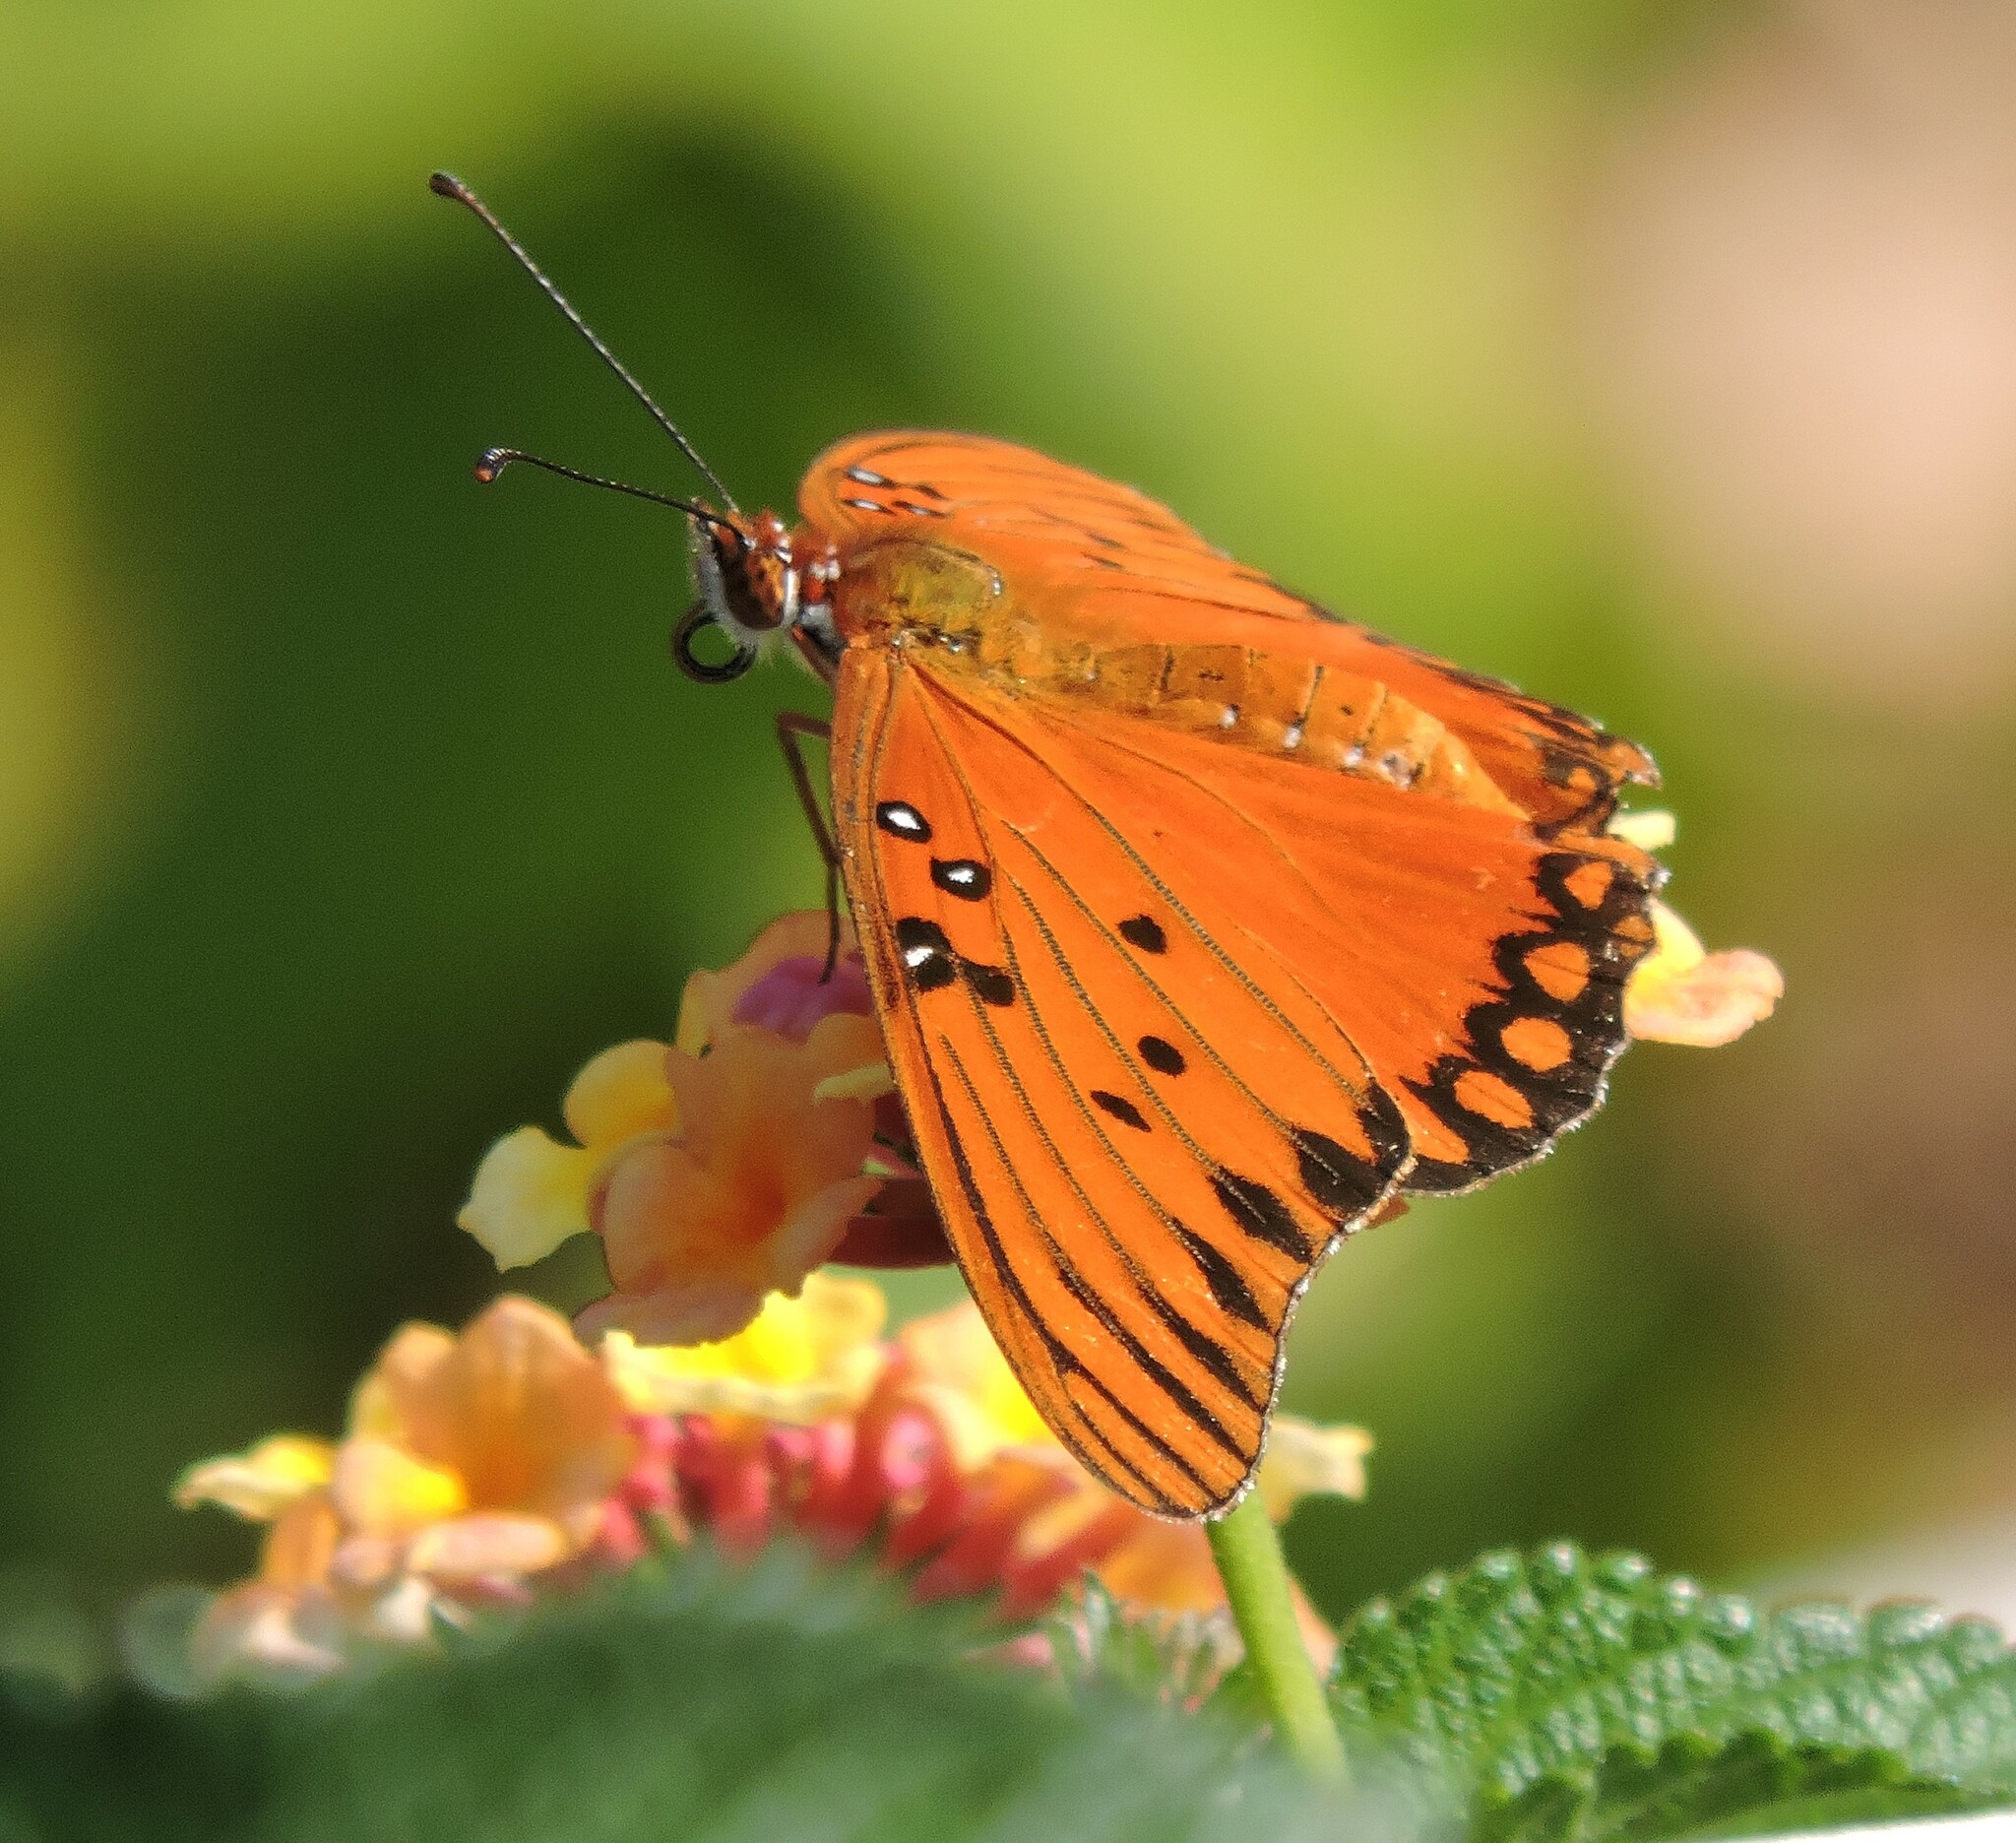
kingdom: Animalia
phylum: Arthropoda
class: Insecta
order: Lepidoptera
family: Nymphalidae
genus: Dione
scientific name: Dione vanillae
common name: Gulf fritillary
